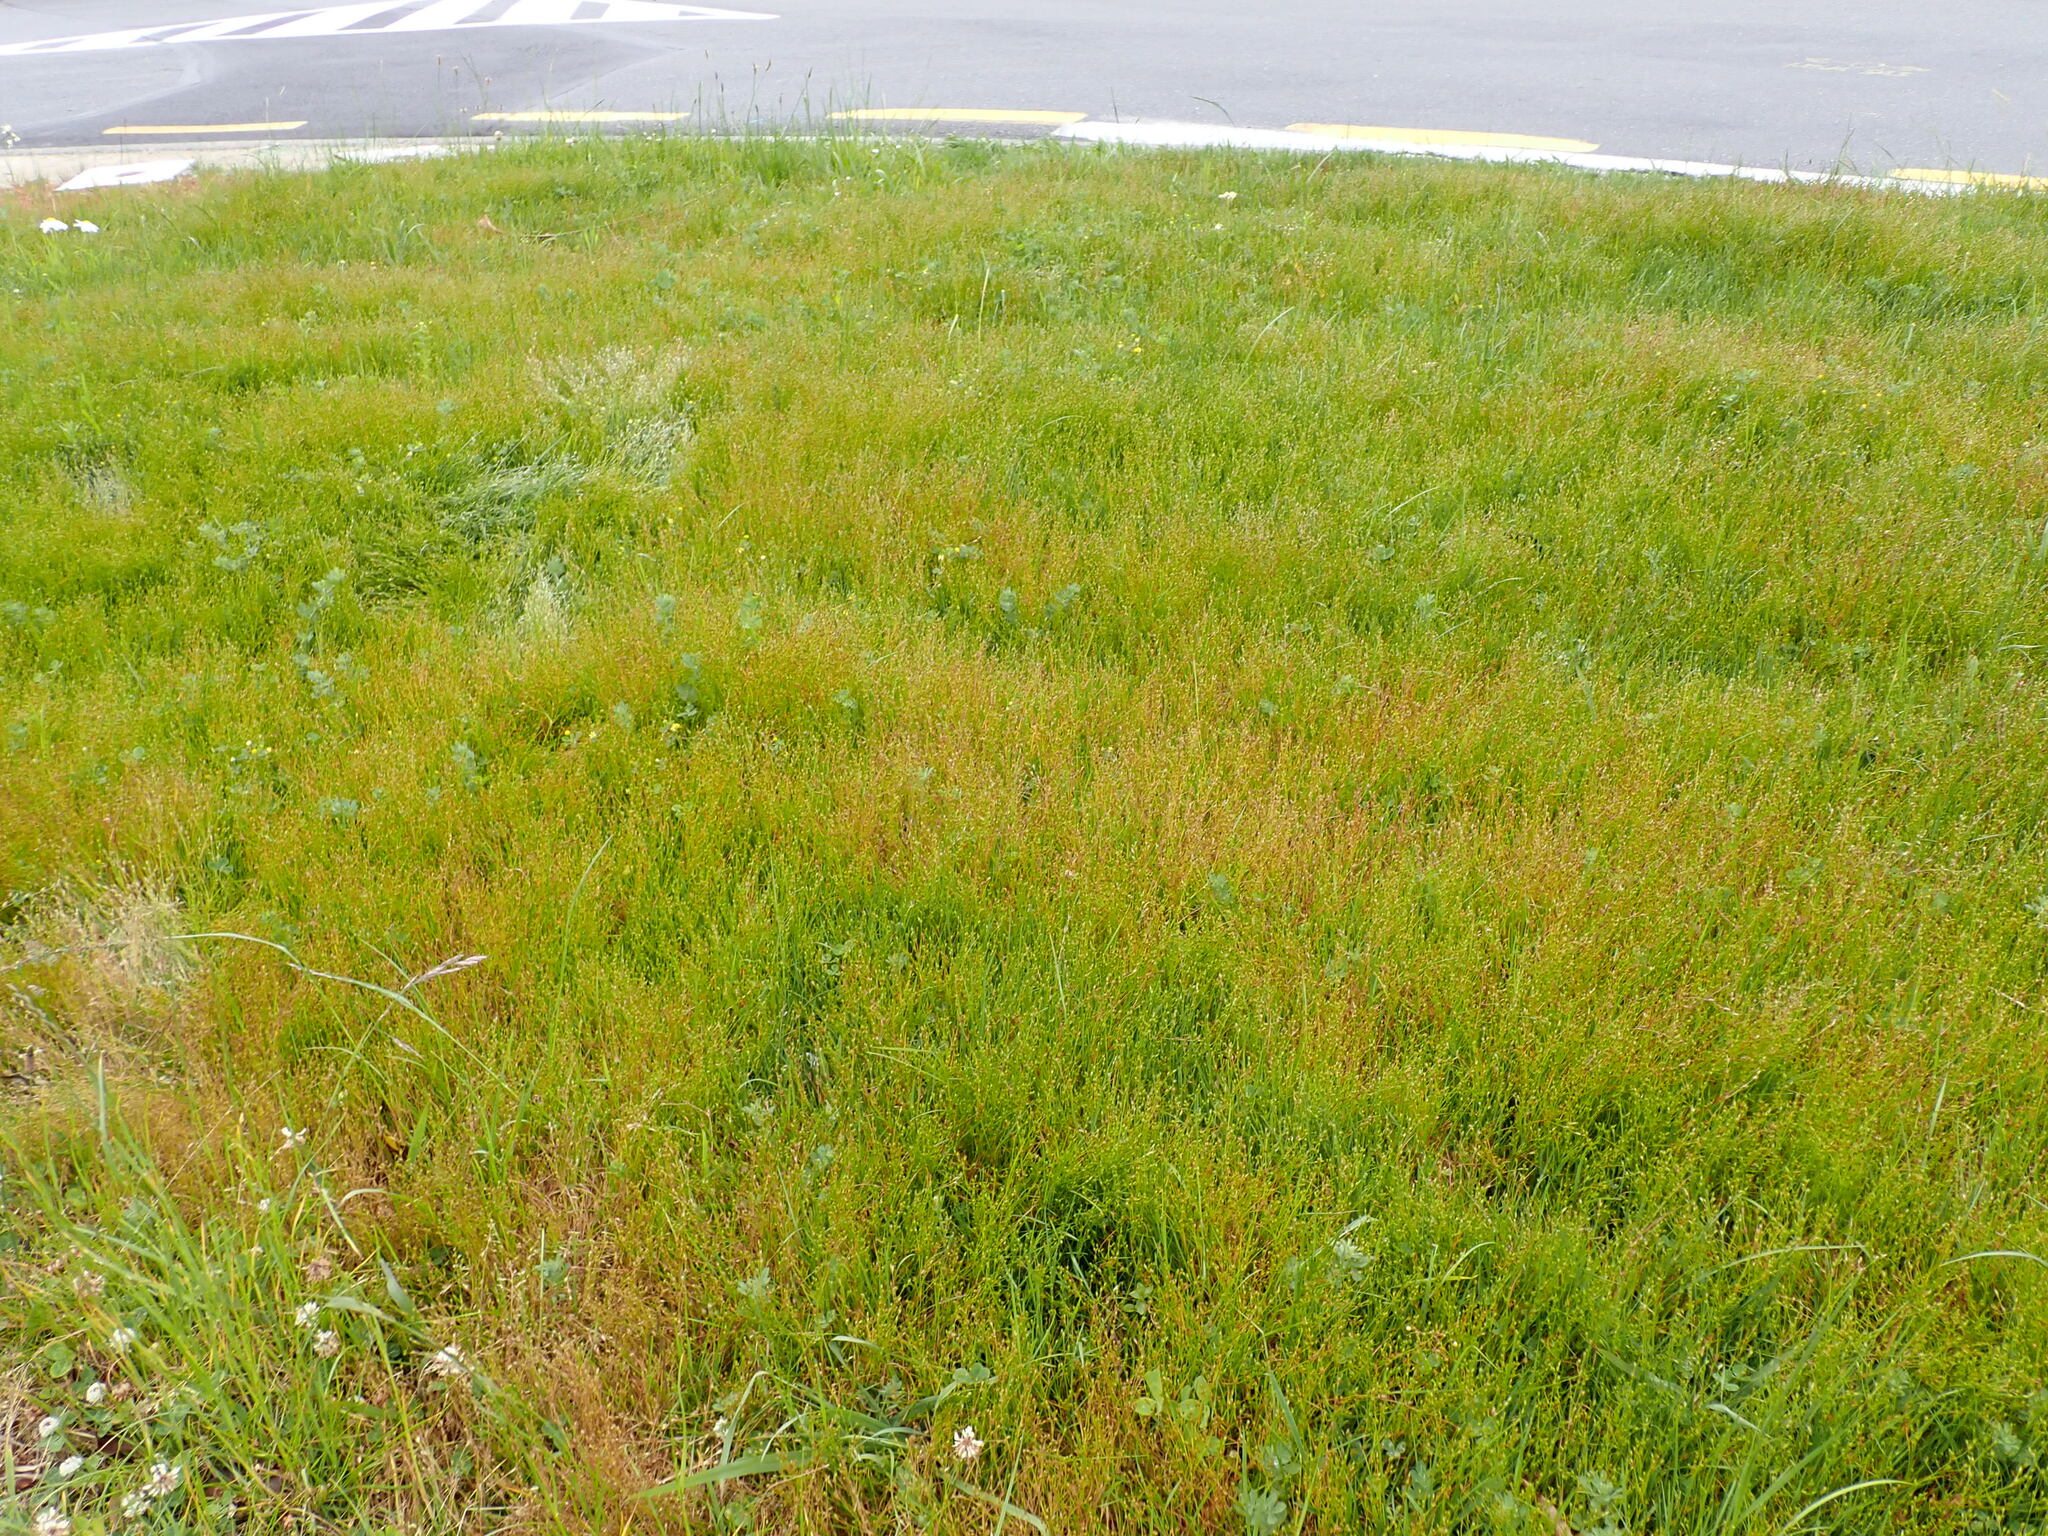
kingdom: Plantae
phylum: Tracheophyta
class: Liliopsida
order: Poales
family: Juncaceae
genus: Juncus
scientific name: Juncus bufonius
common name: Toad rush
